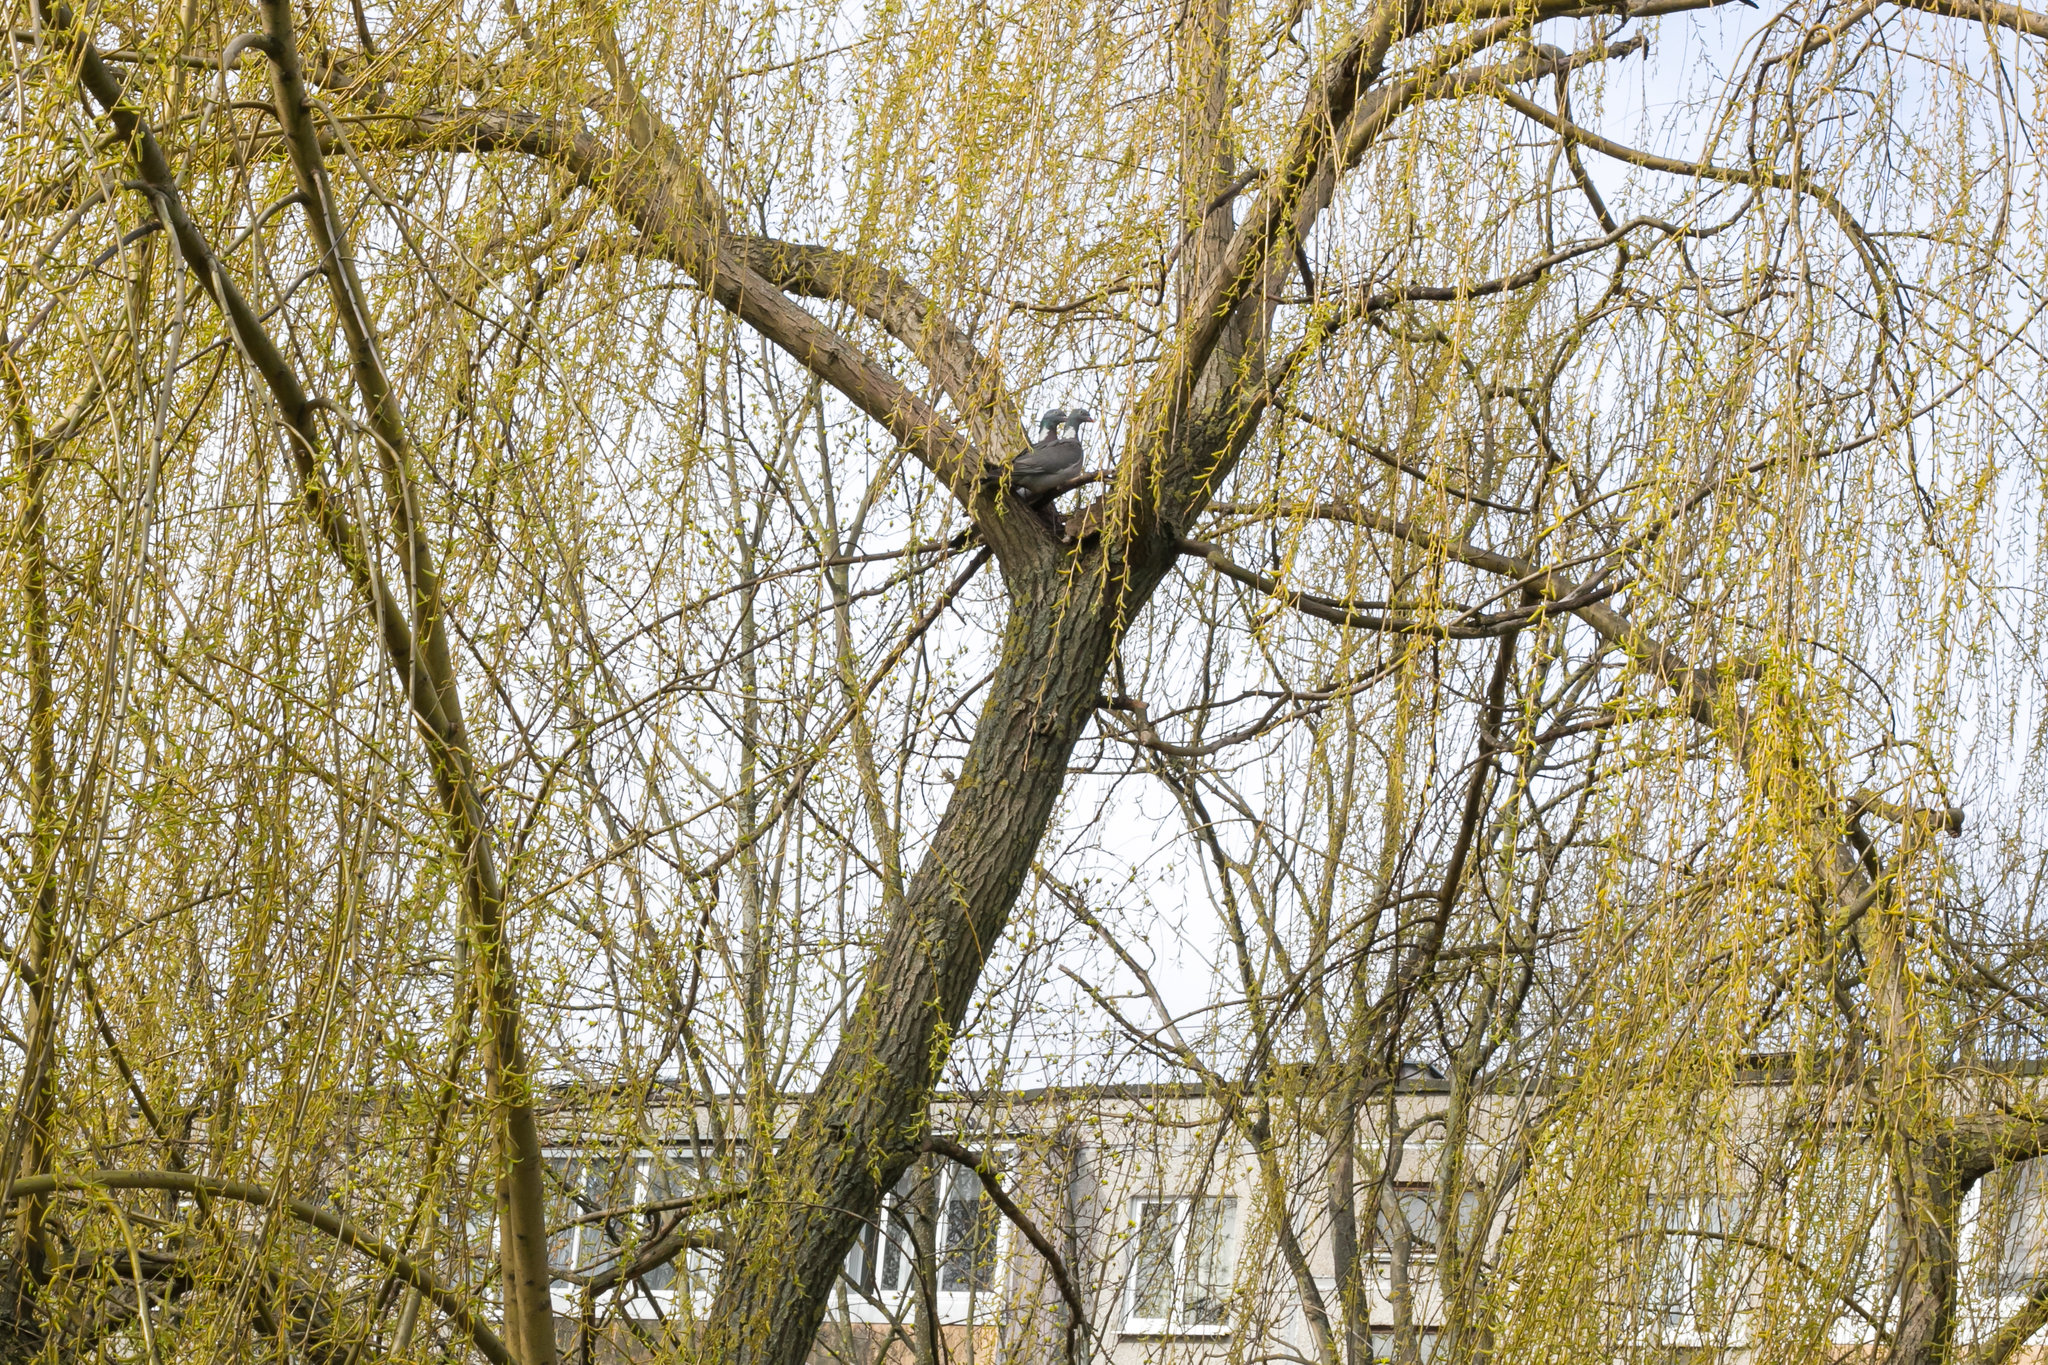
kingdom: Animalia
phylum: Chordata
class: Aves
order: Columbiformes
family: Columbidae
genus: Columba
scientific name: Columba palumbus
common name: Common wood pigeon
